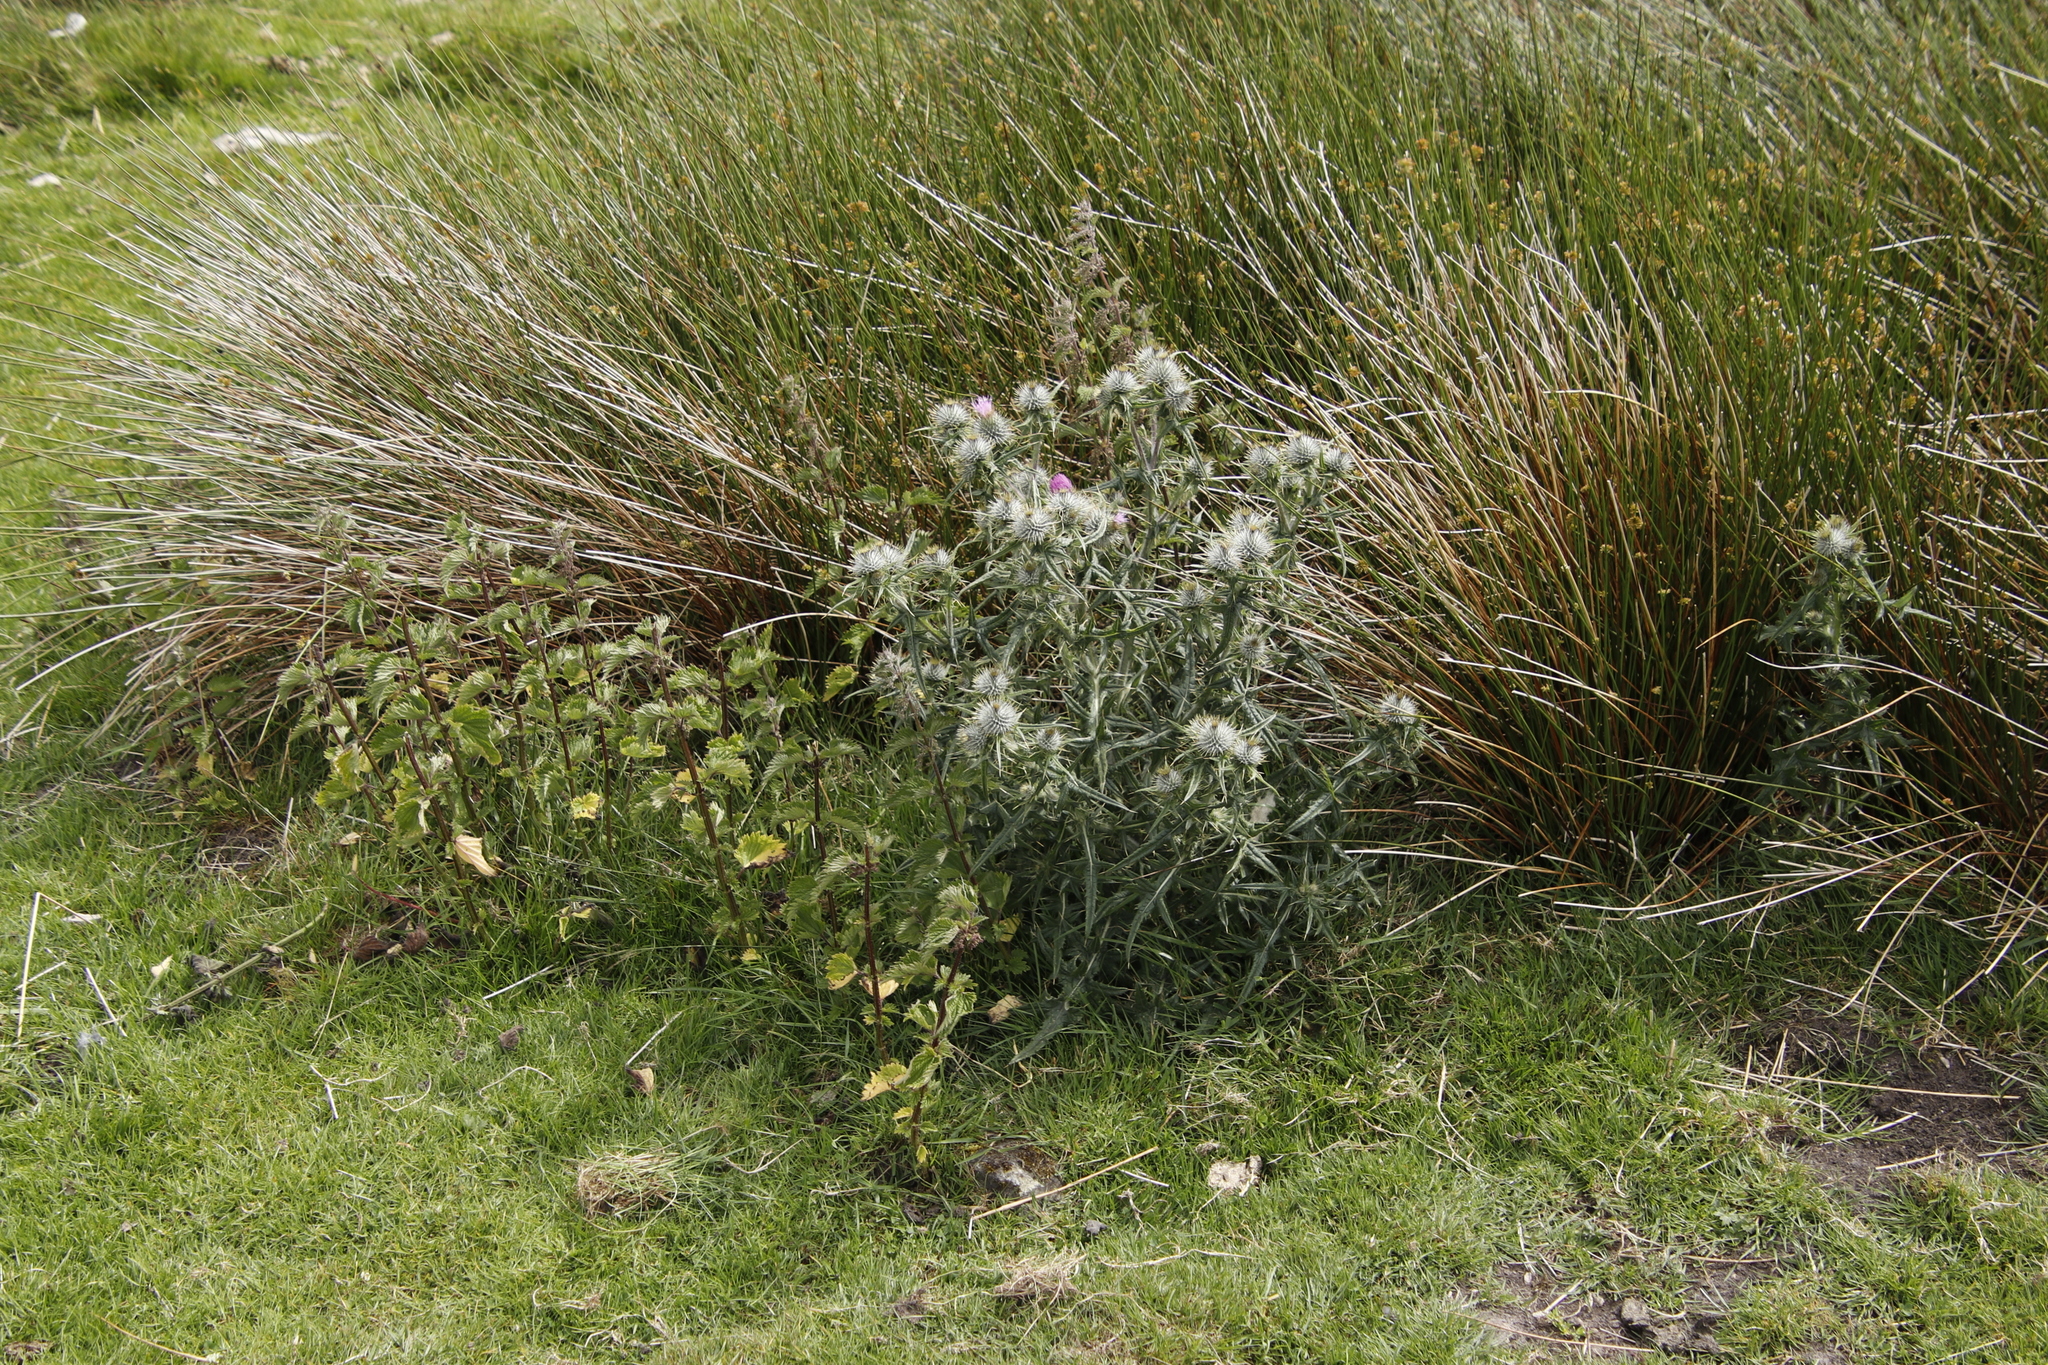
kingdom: Plantae
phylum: Tracheophyta
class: Magnoliopsida
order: Rosales
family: Urticaceae
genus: Urtica
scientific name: Urtica dioica
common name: Common nettle
